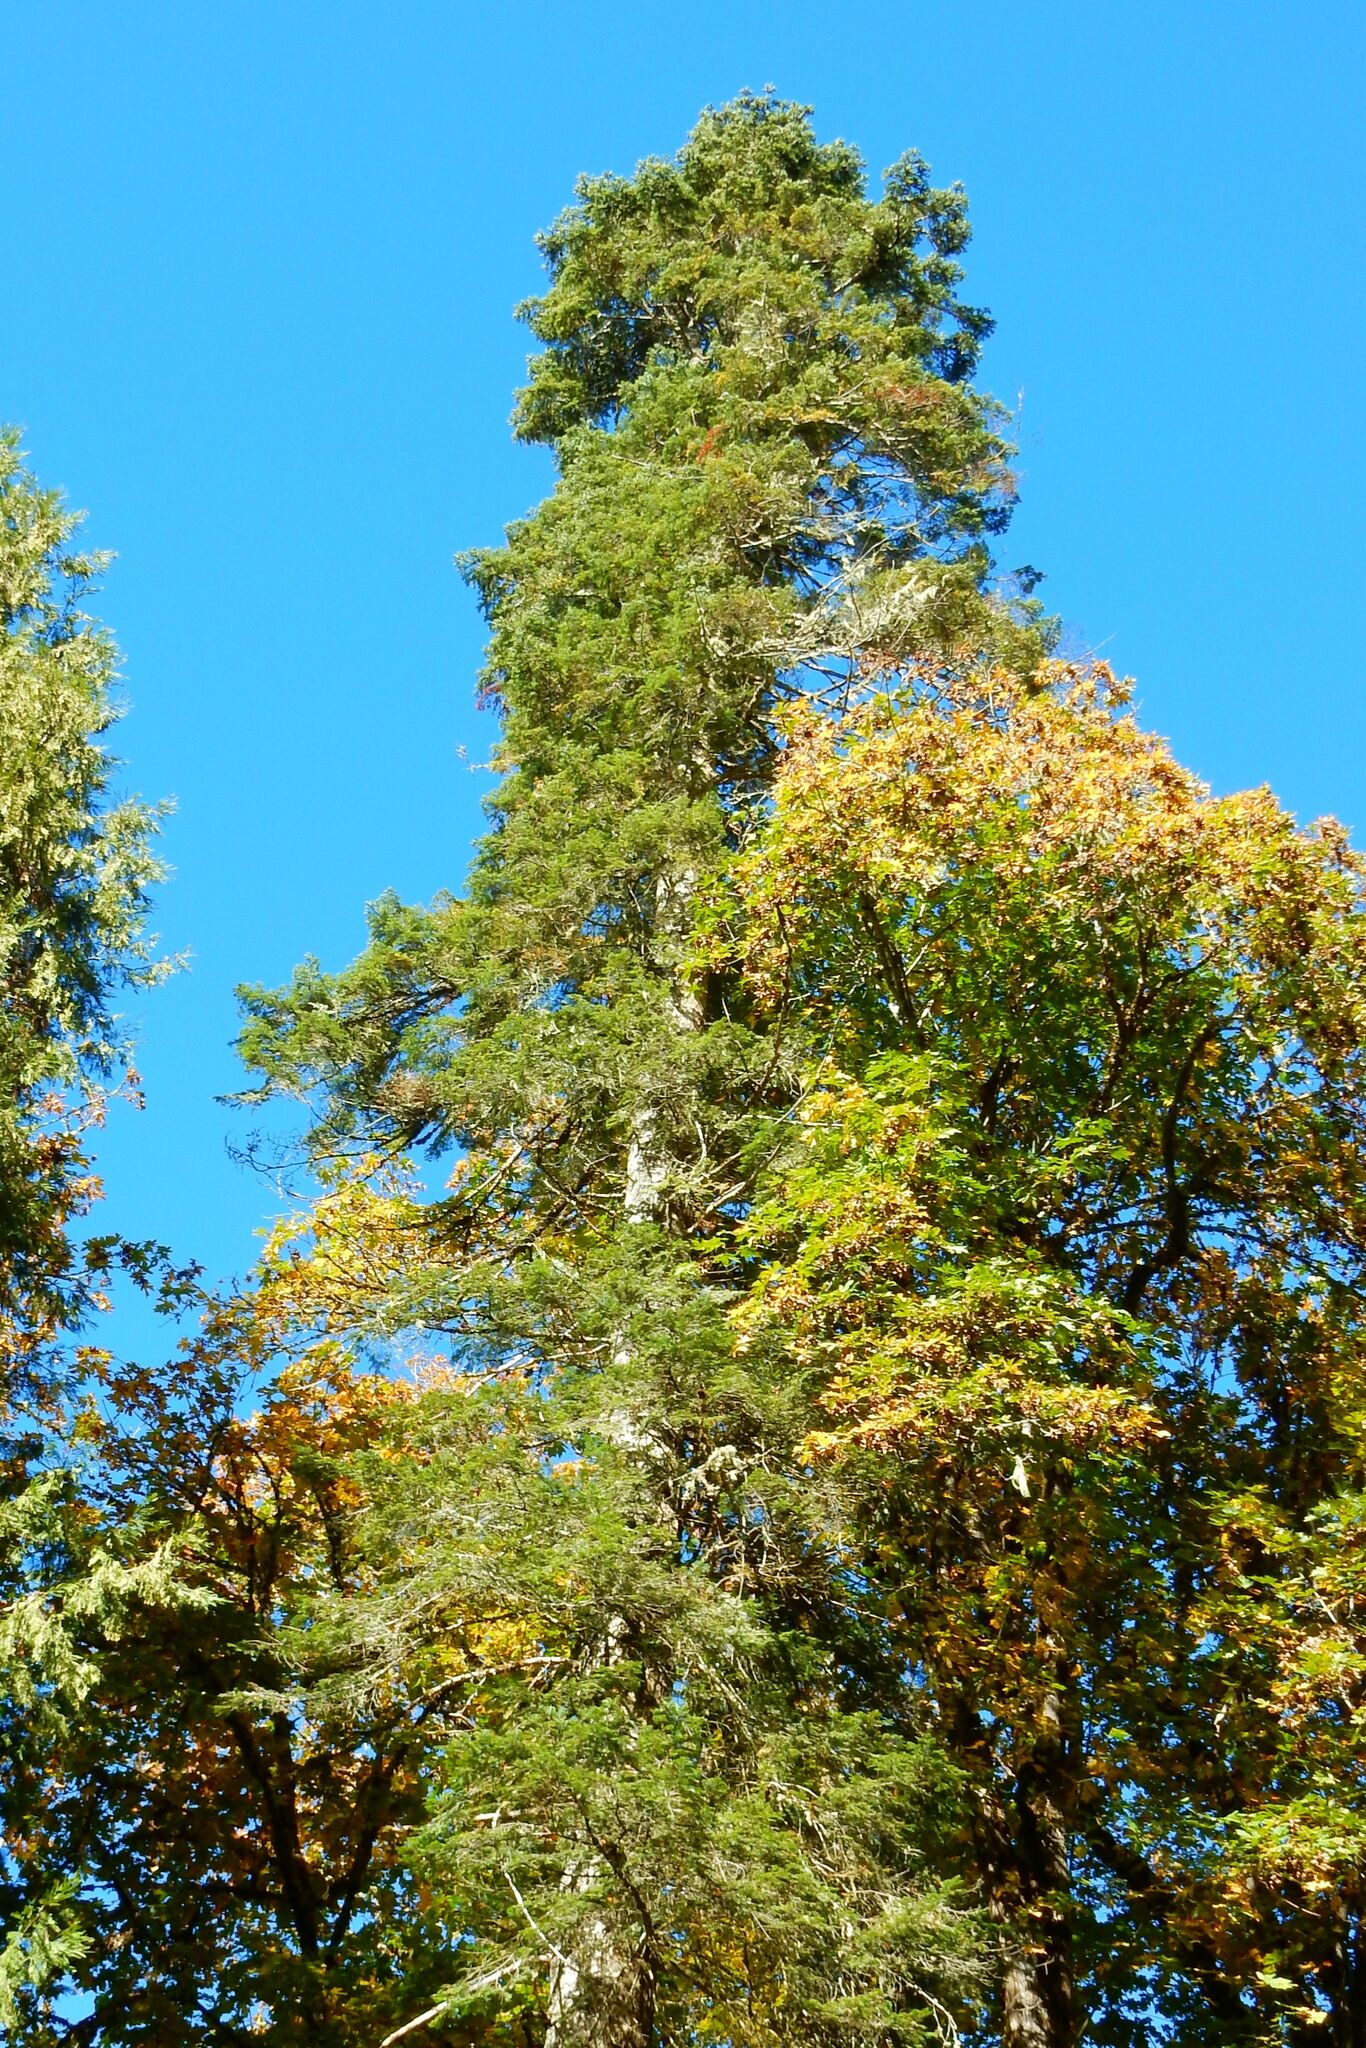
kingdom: Plantae
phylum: Tracheophyta
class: Pinopsida
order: Pinales
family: Pinaceae
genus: Abies
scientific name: Abies grandis
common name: Giant fir
